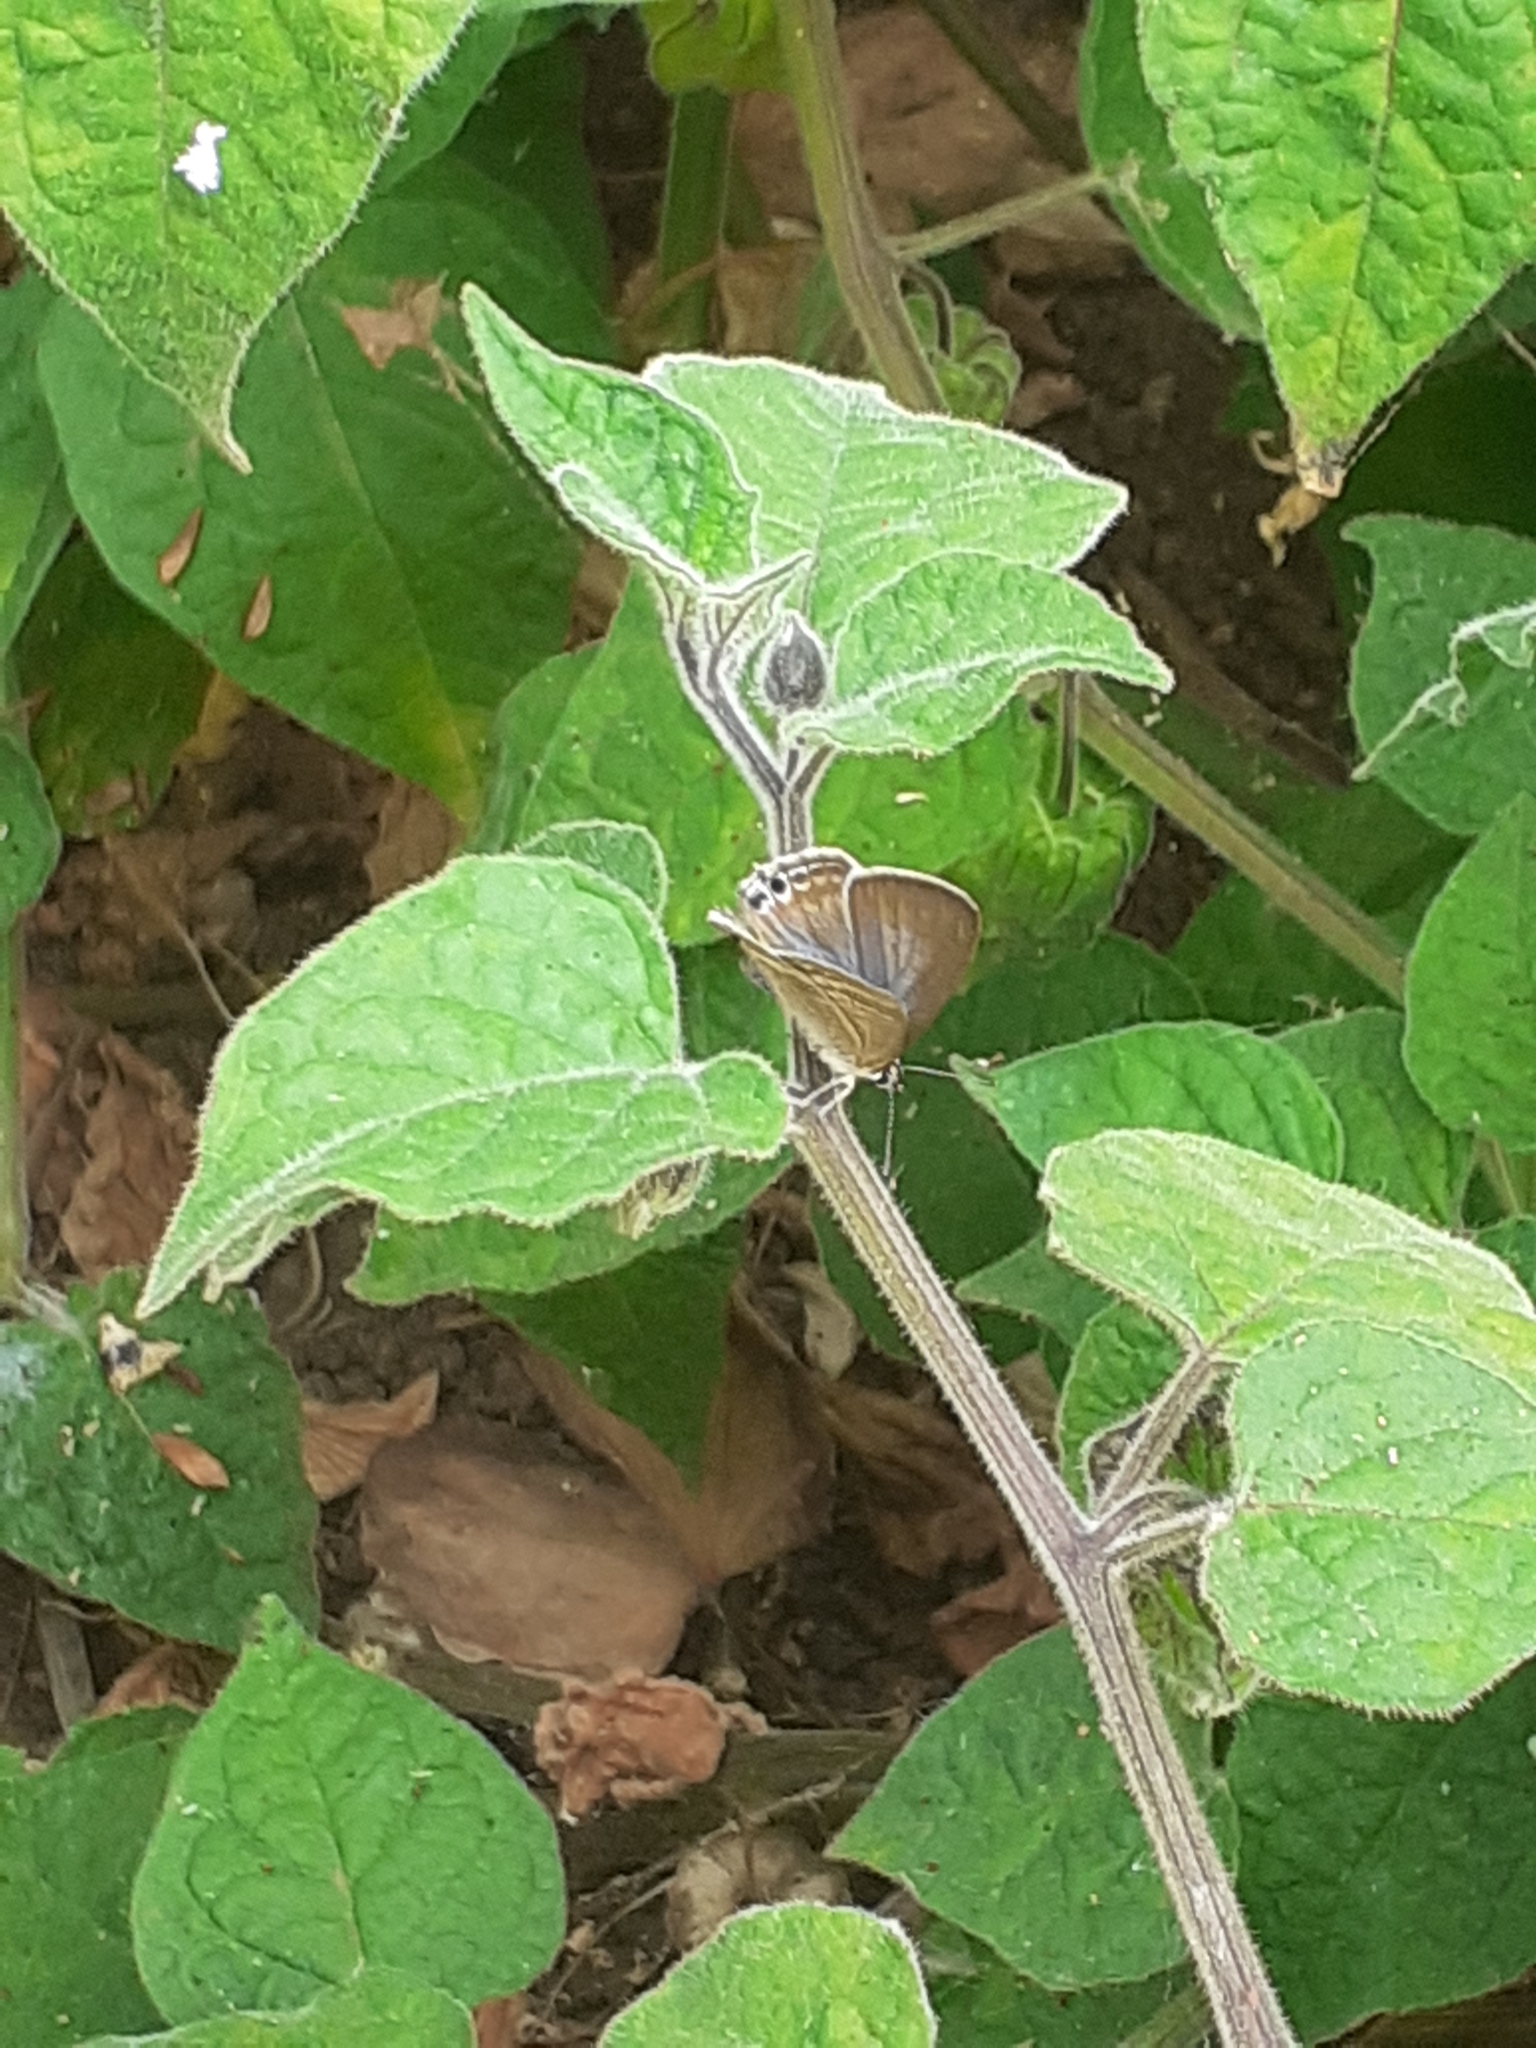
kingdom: Animalia
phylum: Arthropoda
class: Insecta
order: Lepidoptera
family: Lycaenidae
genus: Lampides
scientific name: Lampides boeticus
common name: Long-tailed blue
